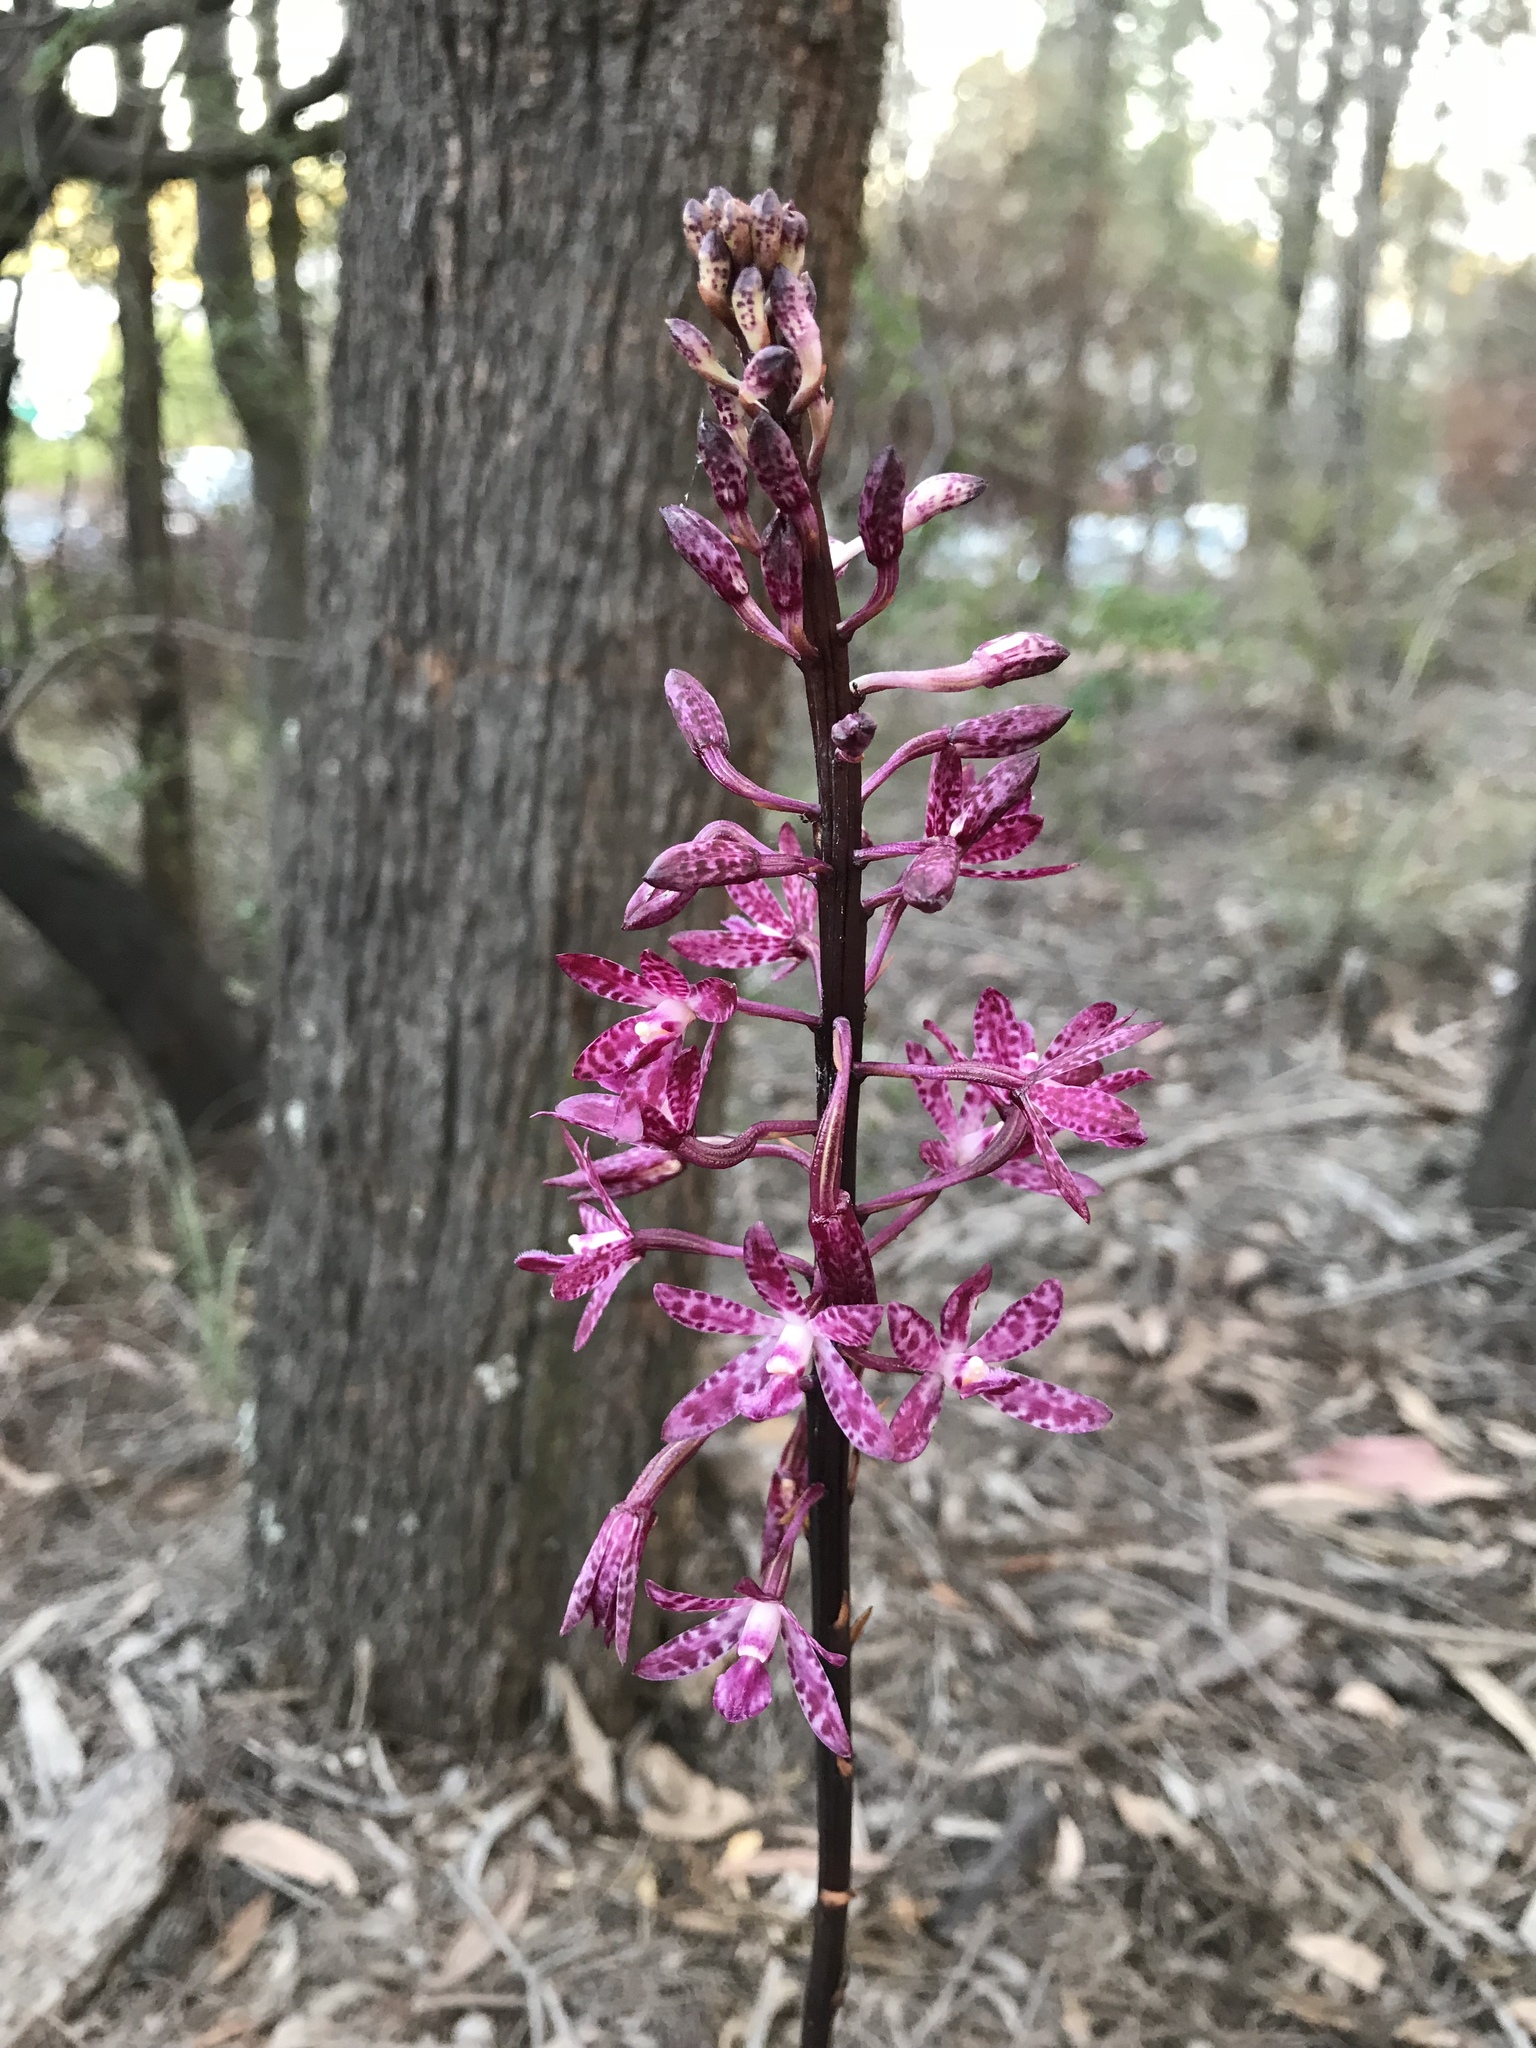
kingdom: Plantae
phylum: Tracheophyta
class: Liliopsida
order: Asparagales
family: Orchidaceae
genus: Dipodium
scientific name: Dipodium squamatum
